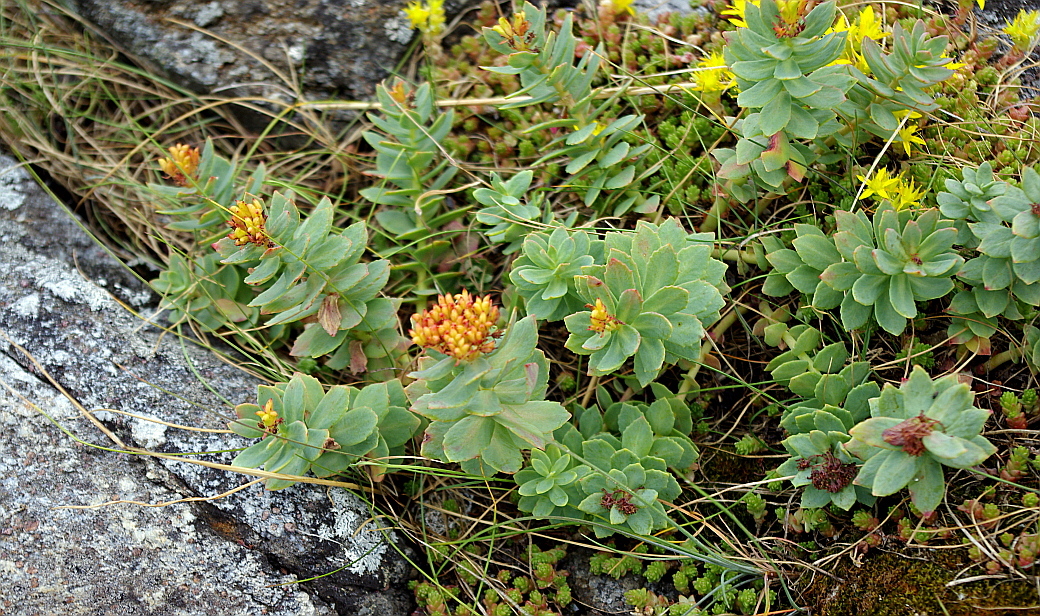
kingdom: Plantae
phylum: Tracheophyta
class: Magnoliopsida
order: Saxifragales
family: Crassulaceae
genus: Rhodiola
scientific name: Rhodiola rosea
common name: Roseroot
